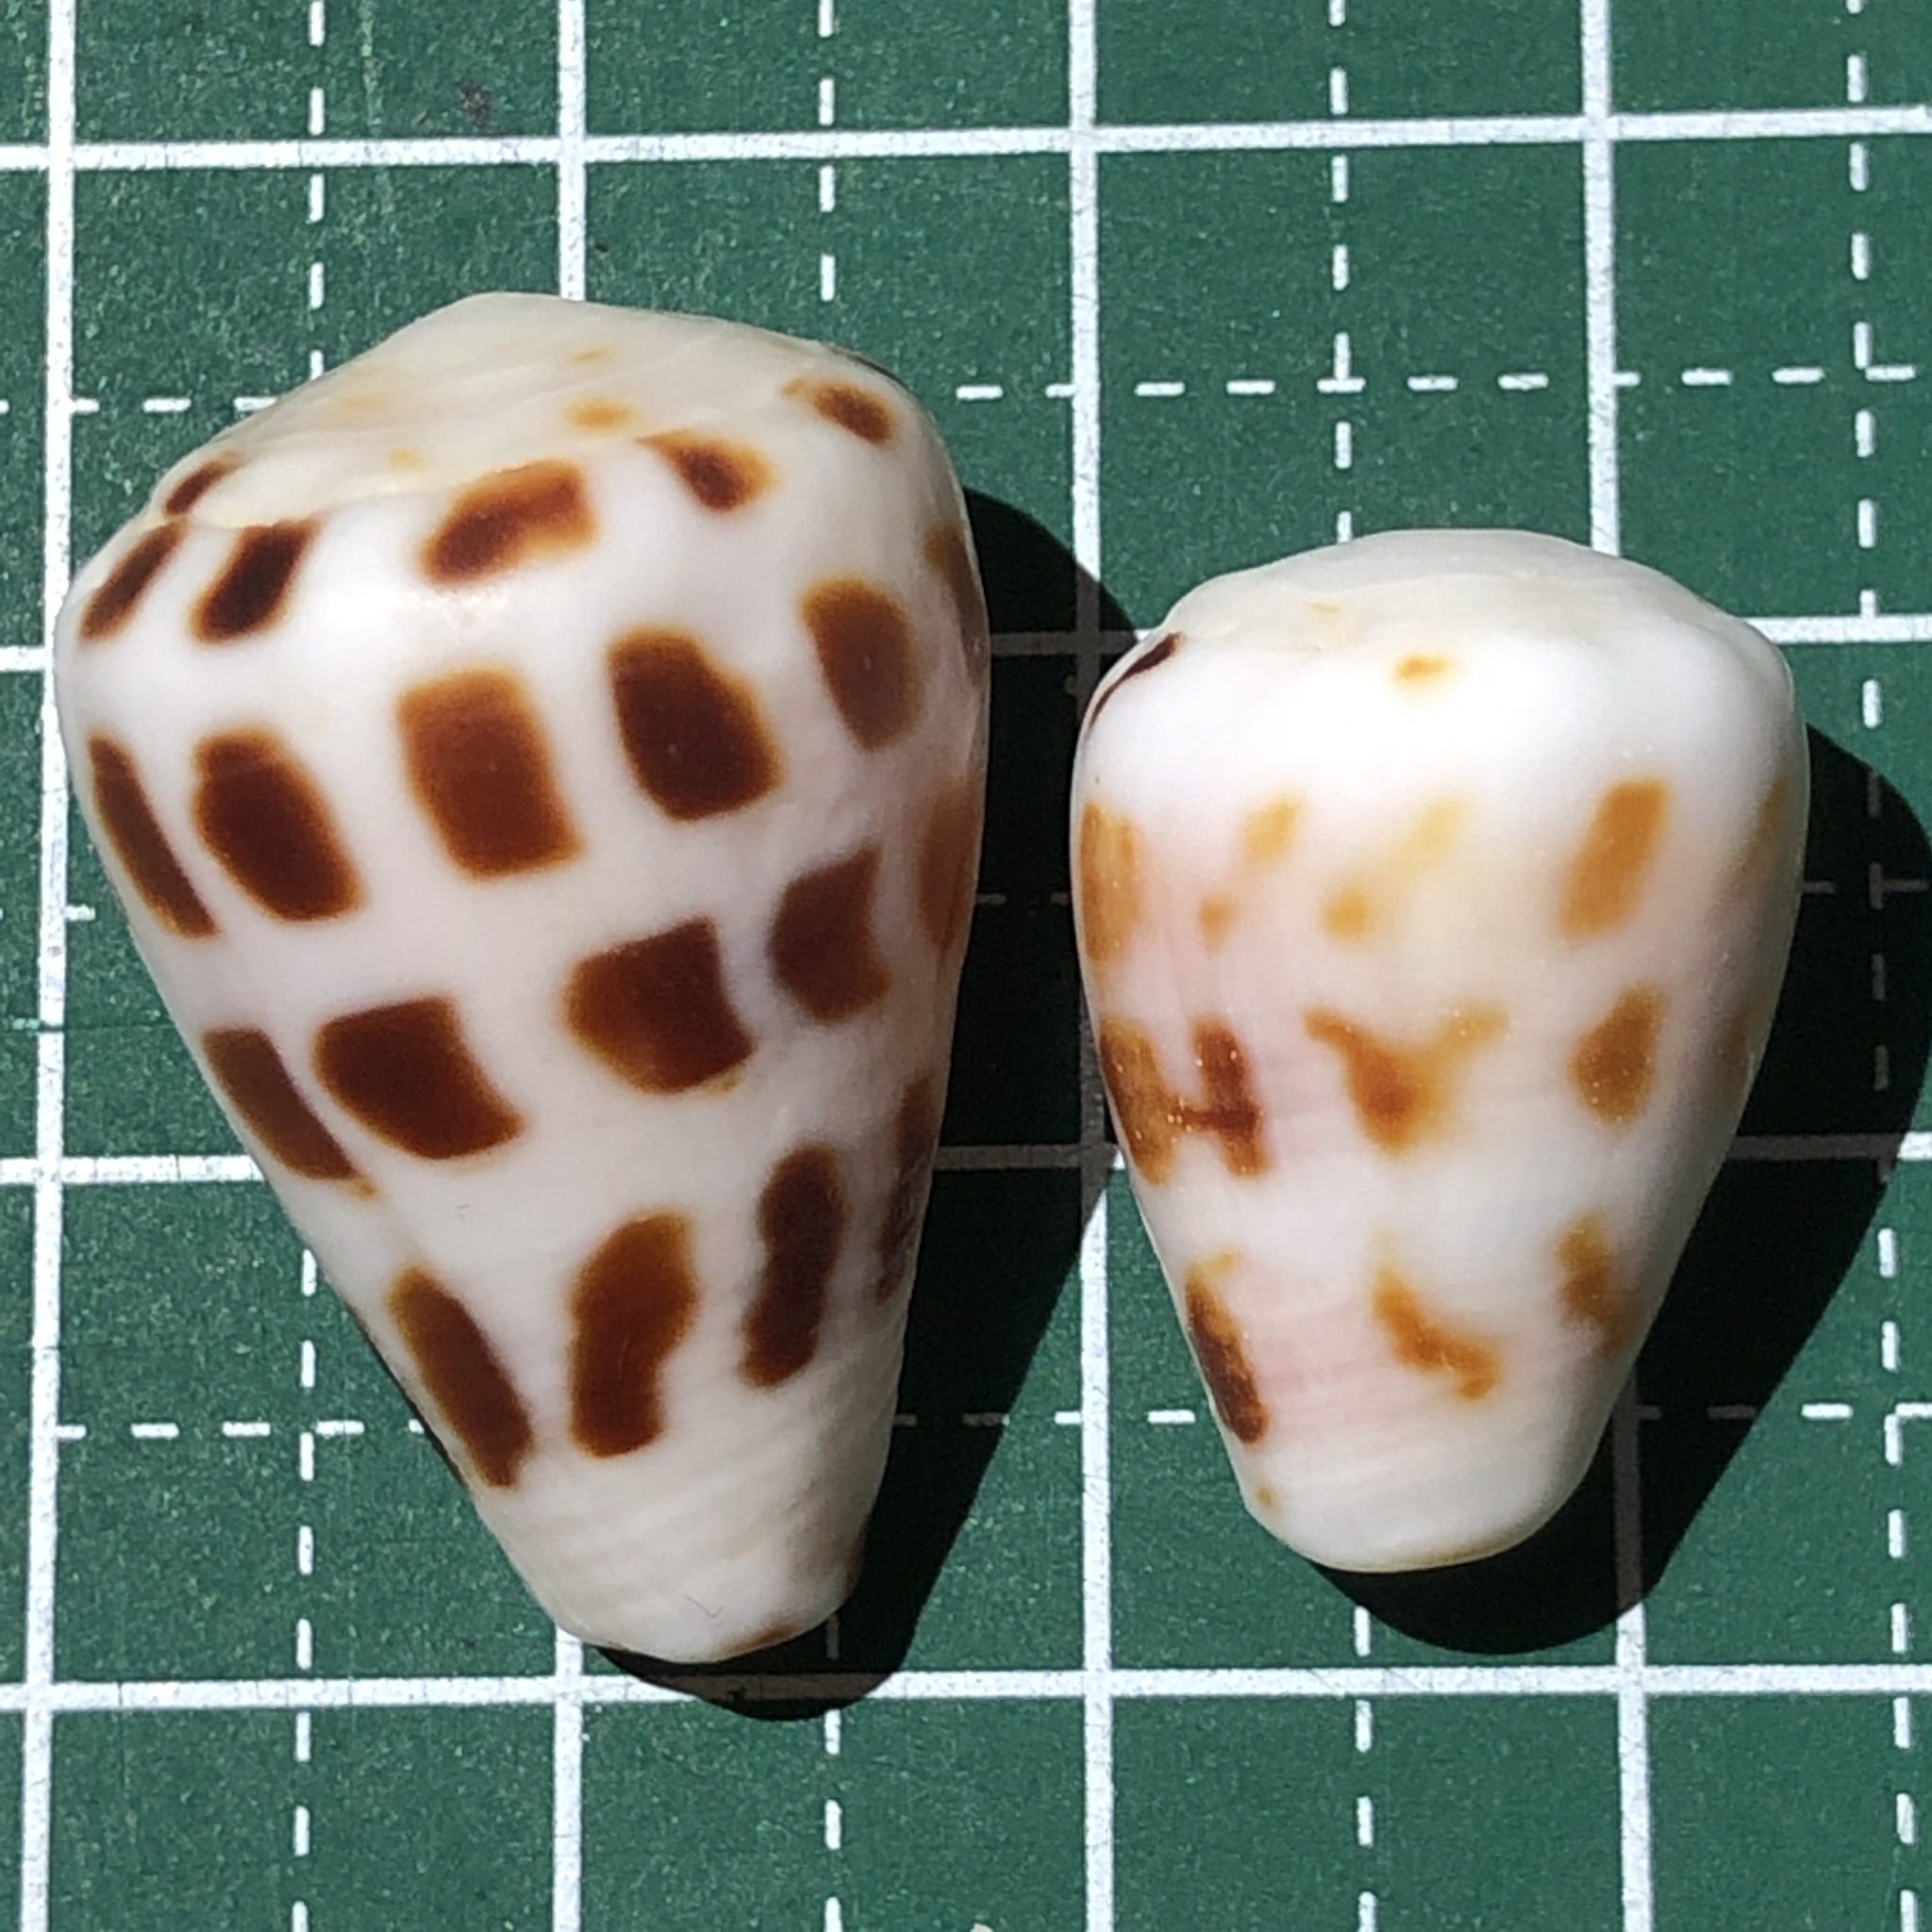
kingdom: Animalia
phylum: Mollusca
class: Gastropoda
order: Neogastropoda
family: Conidae
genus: Conus
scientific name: Conus ebraeus
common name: Hebrew cone
